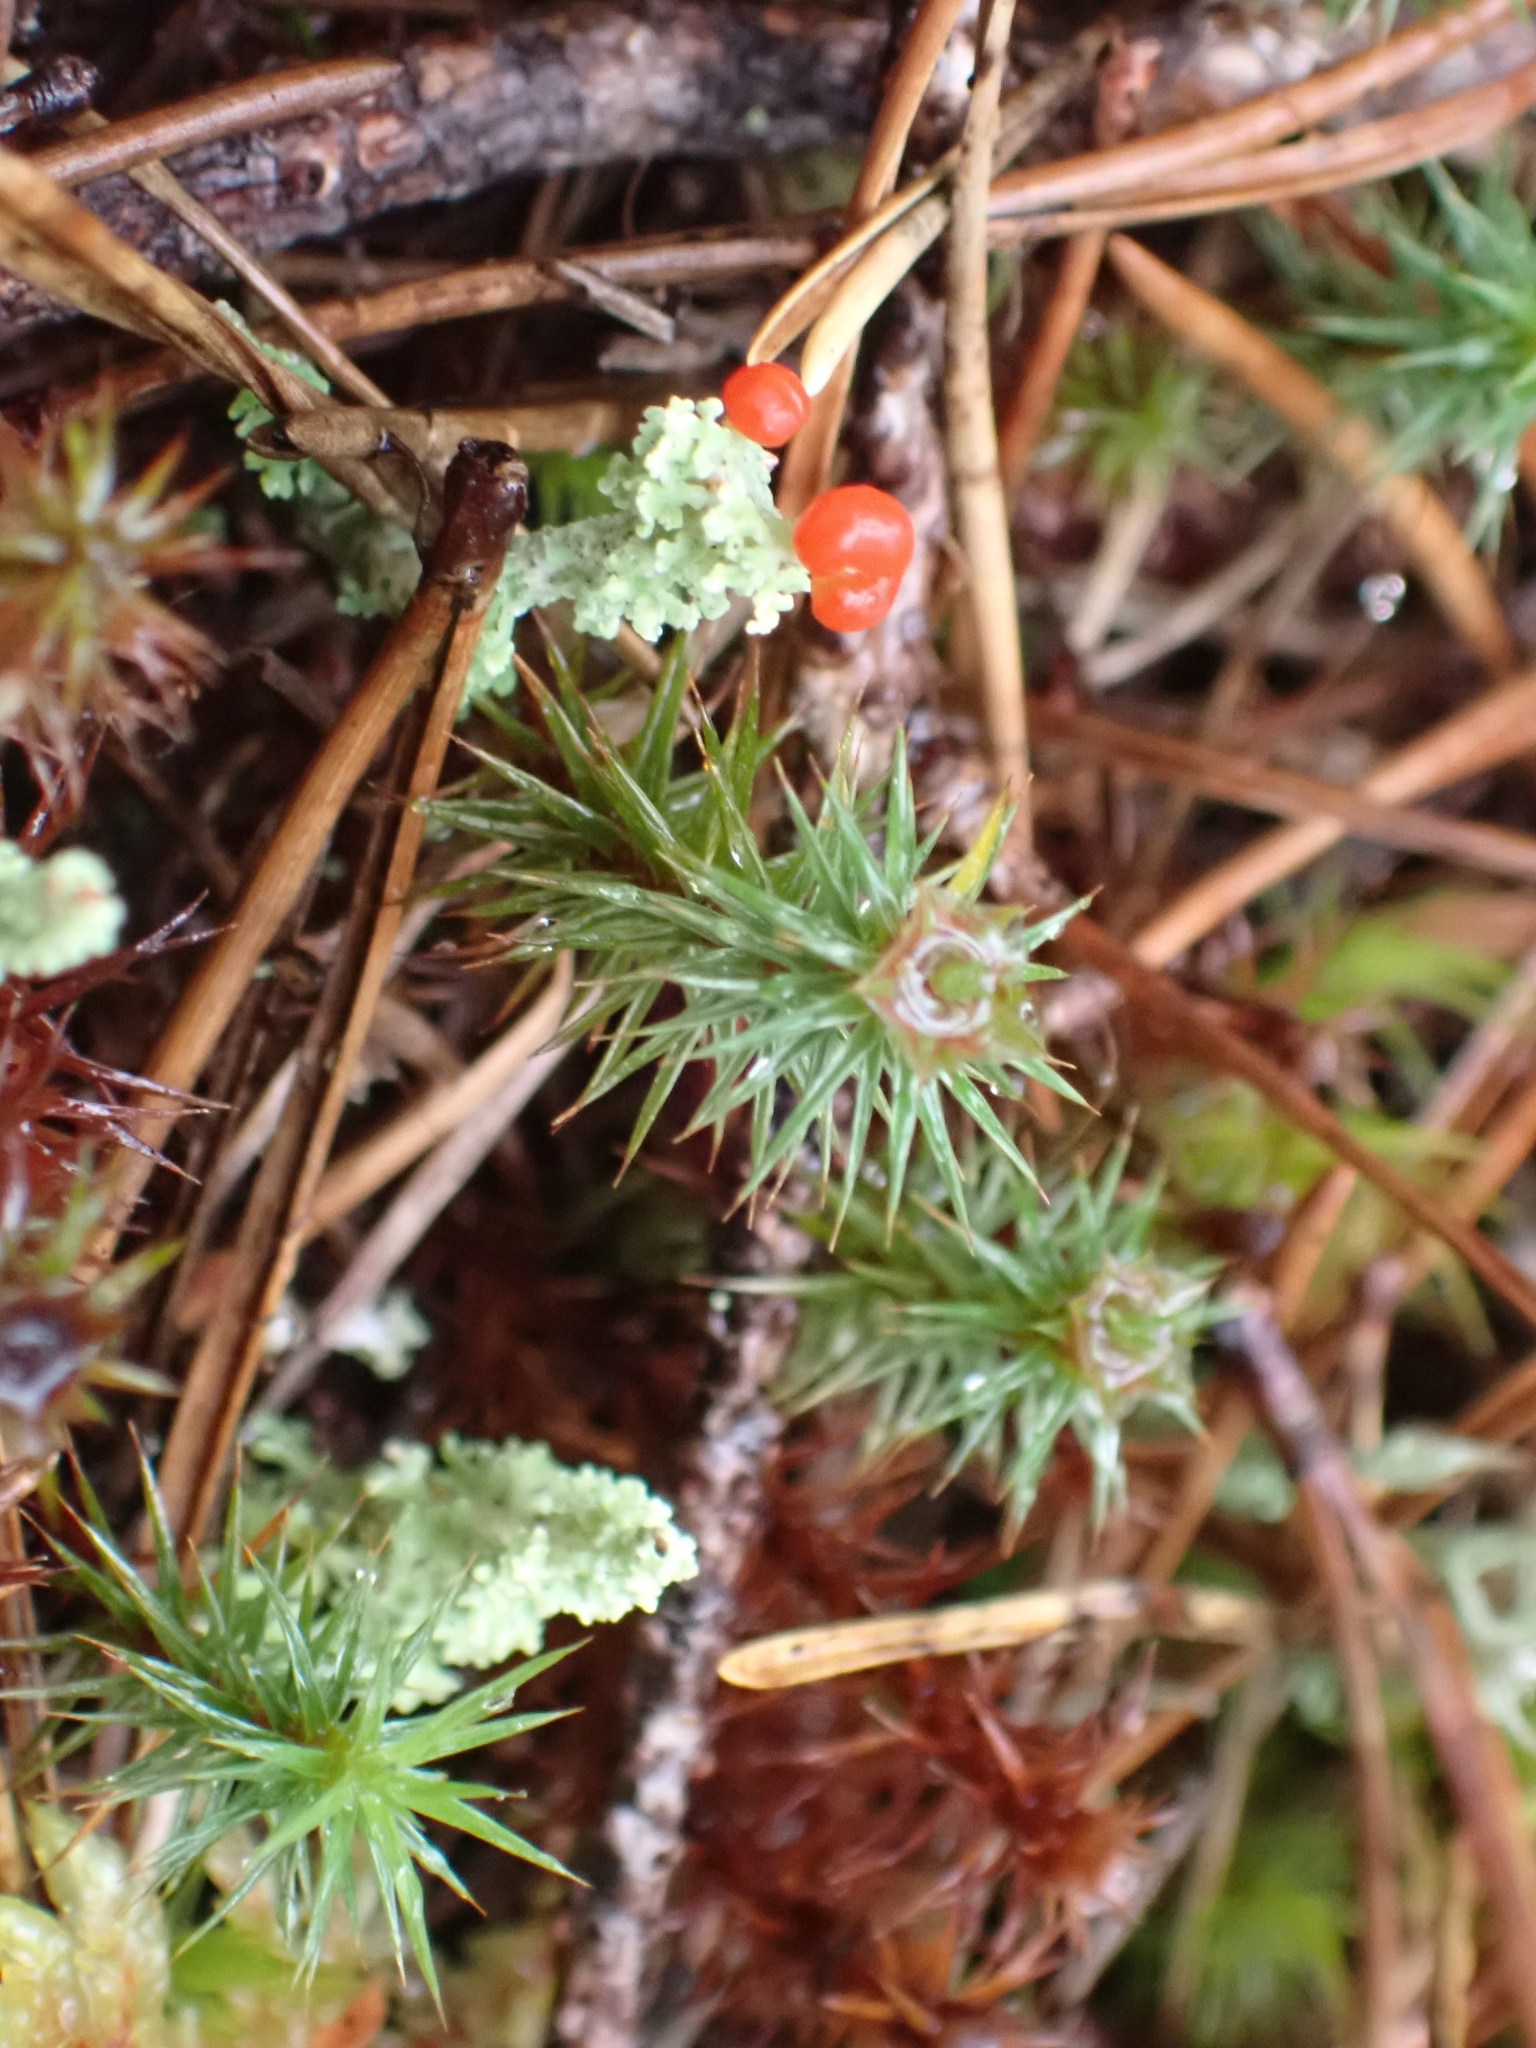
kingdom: Plantae
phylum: Bryophyta
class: Polytrichopsida
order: Polytrichales
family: Polytrichaceae
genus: Polytrichum
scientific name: Polytrichum juniperinum
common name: Juniper haircap moss
